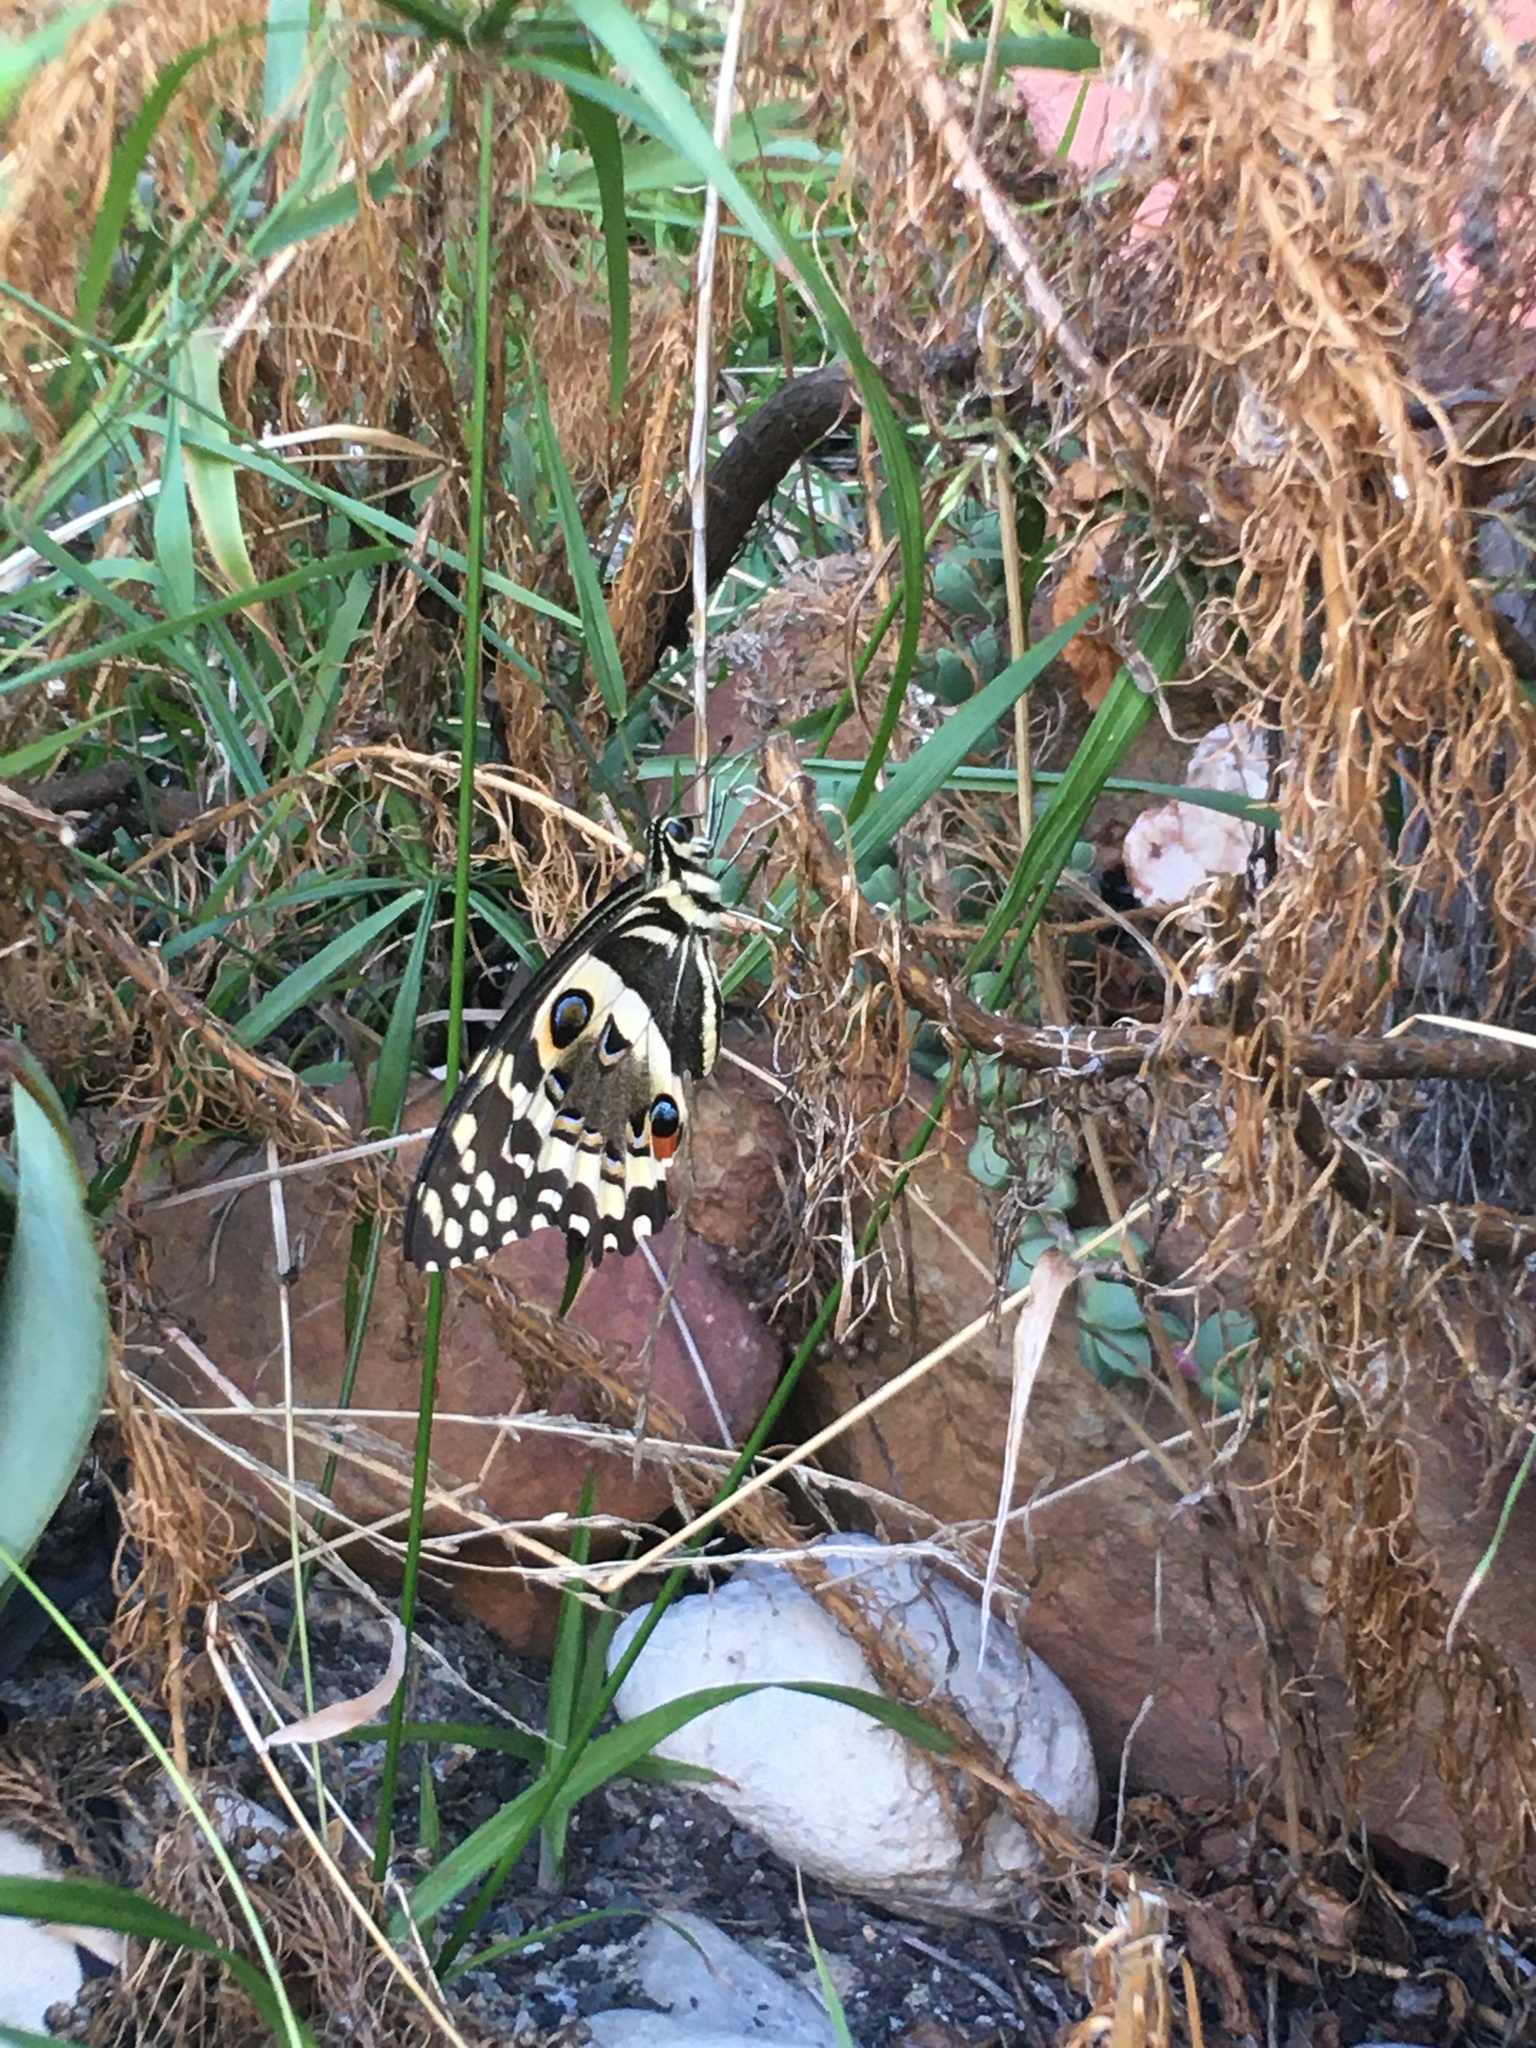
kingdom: Animalia
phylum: Arthropoda
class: Insecta
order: Lepidoptera
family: Papilionidae
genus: Papilio
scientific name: Papilio demodocus
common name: Christmas butterfly
